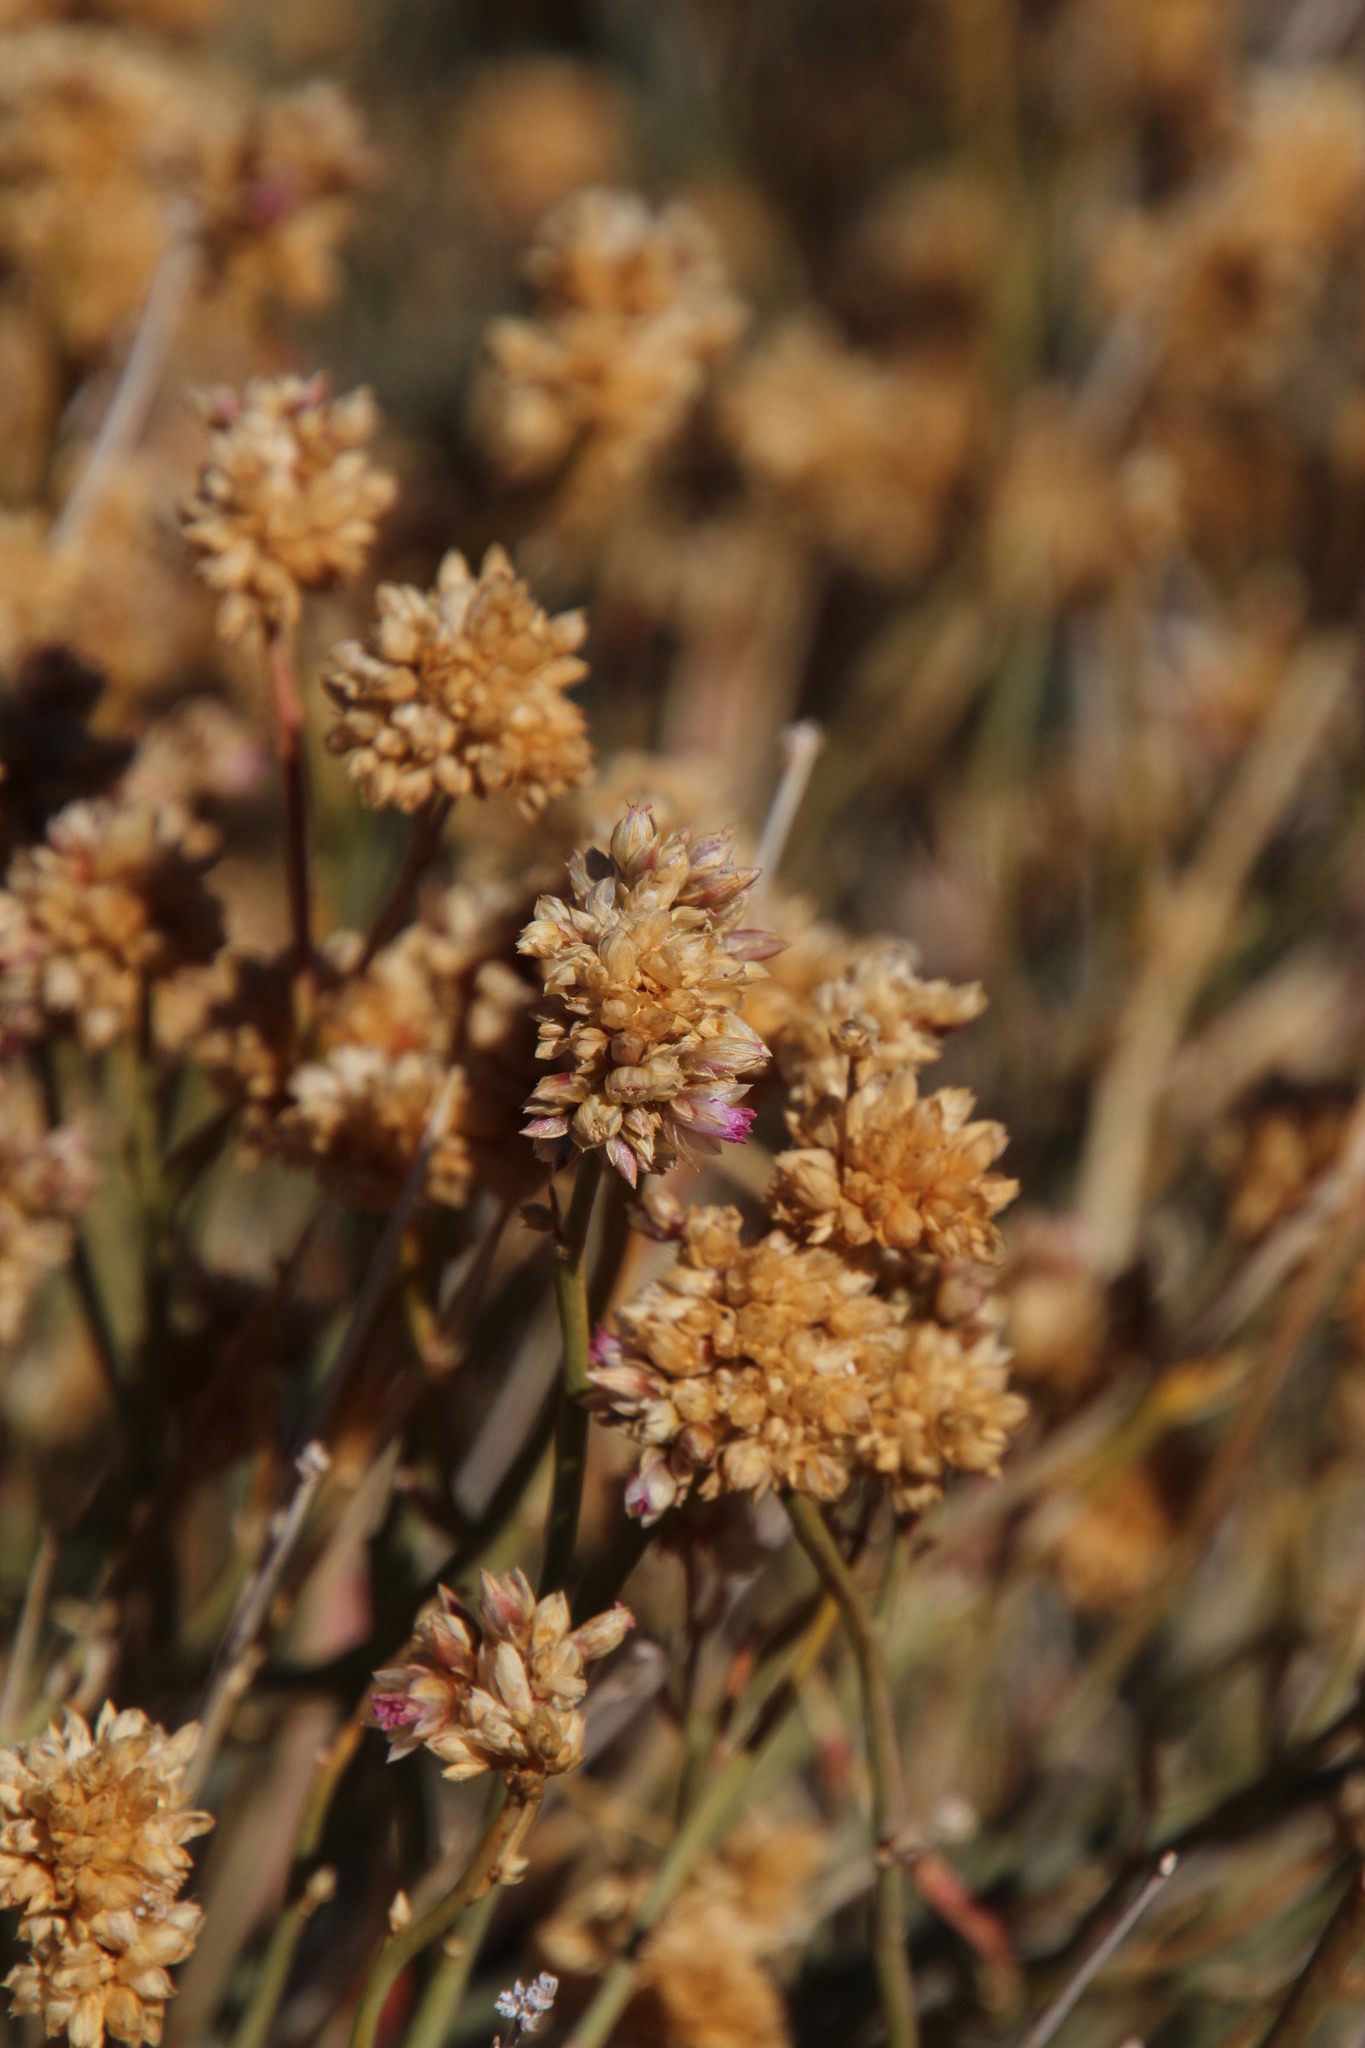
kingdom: Plantae
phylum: Tracheophyta
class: Magnoliopsida
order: Caryophyllales
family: Amaranthaceae
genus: Hermbstaedtia
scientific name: Hermbstaedtia glauca
